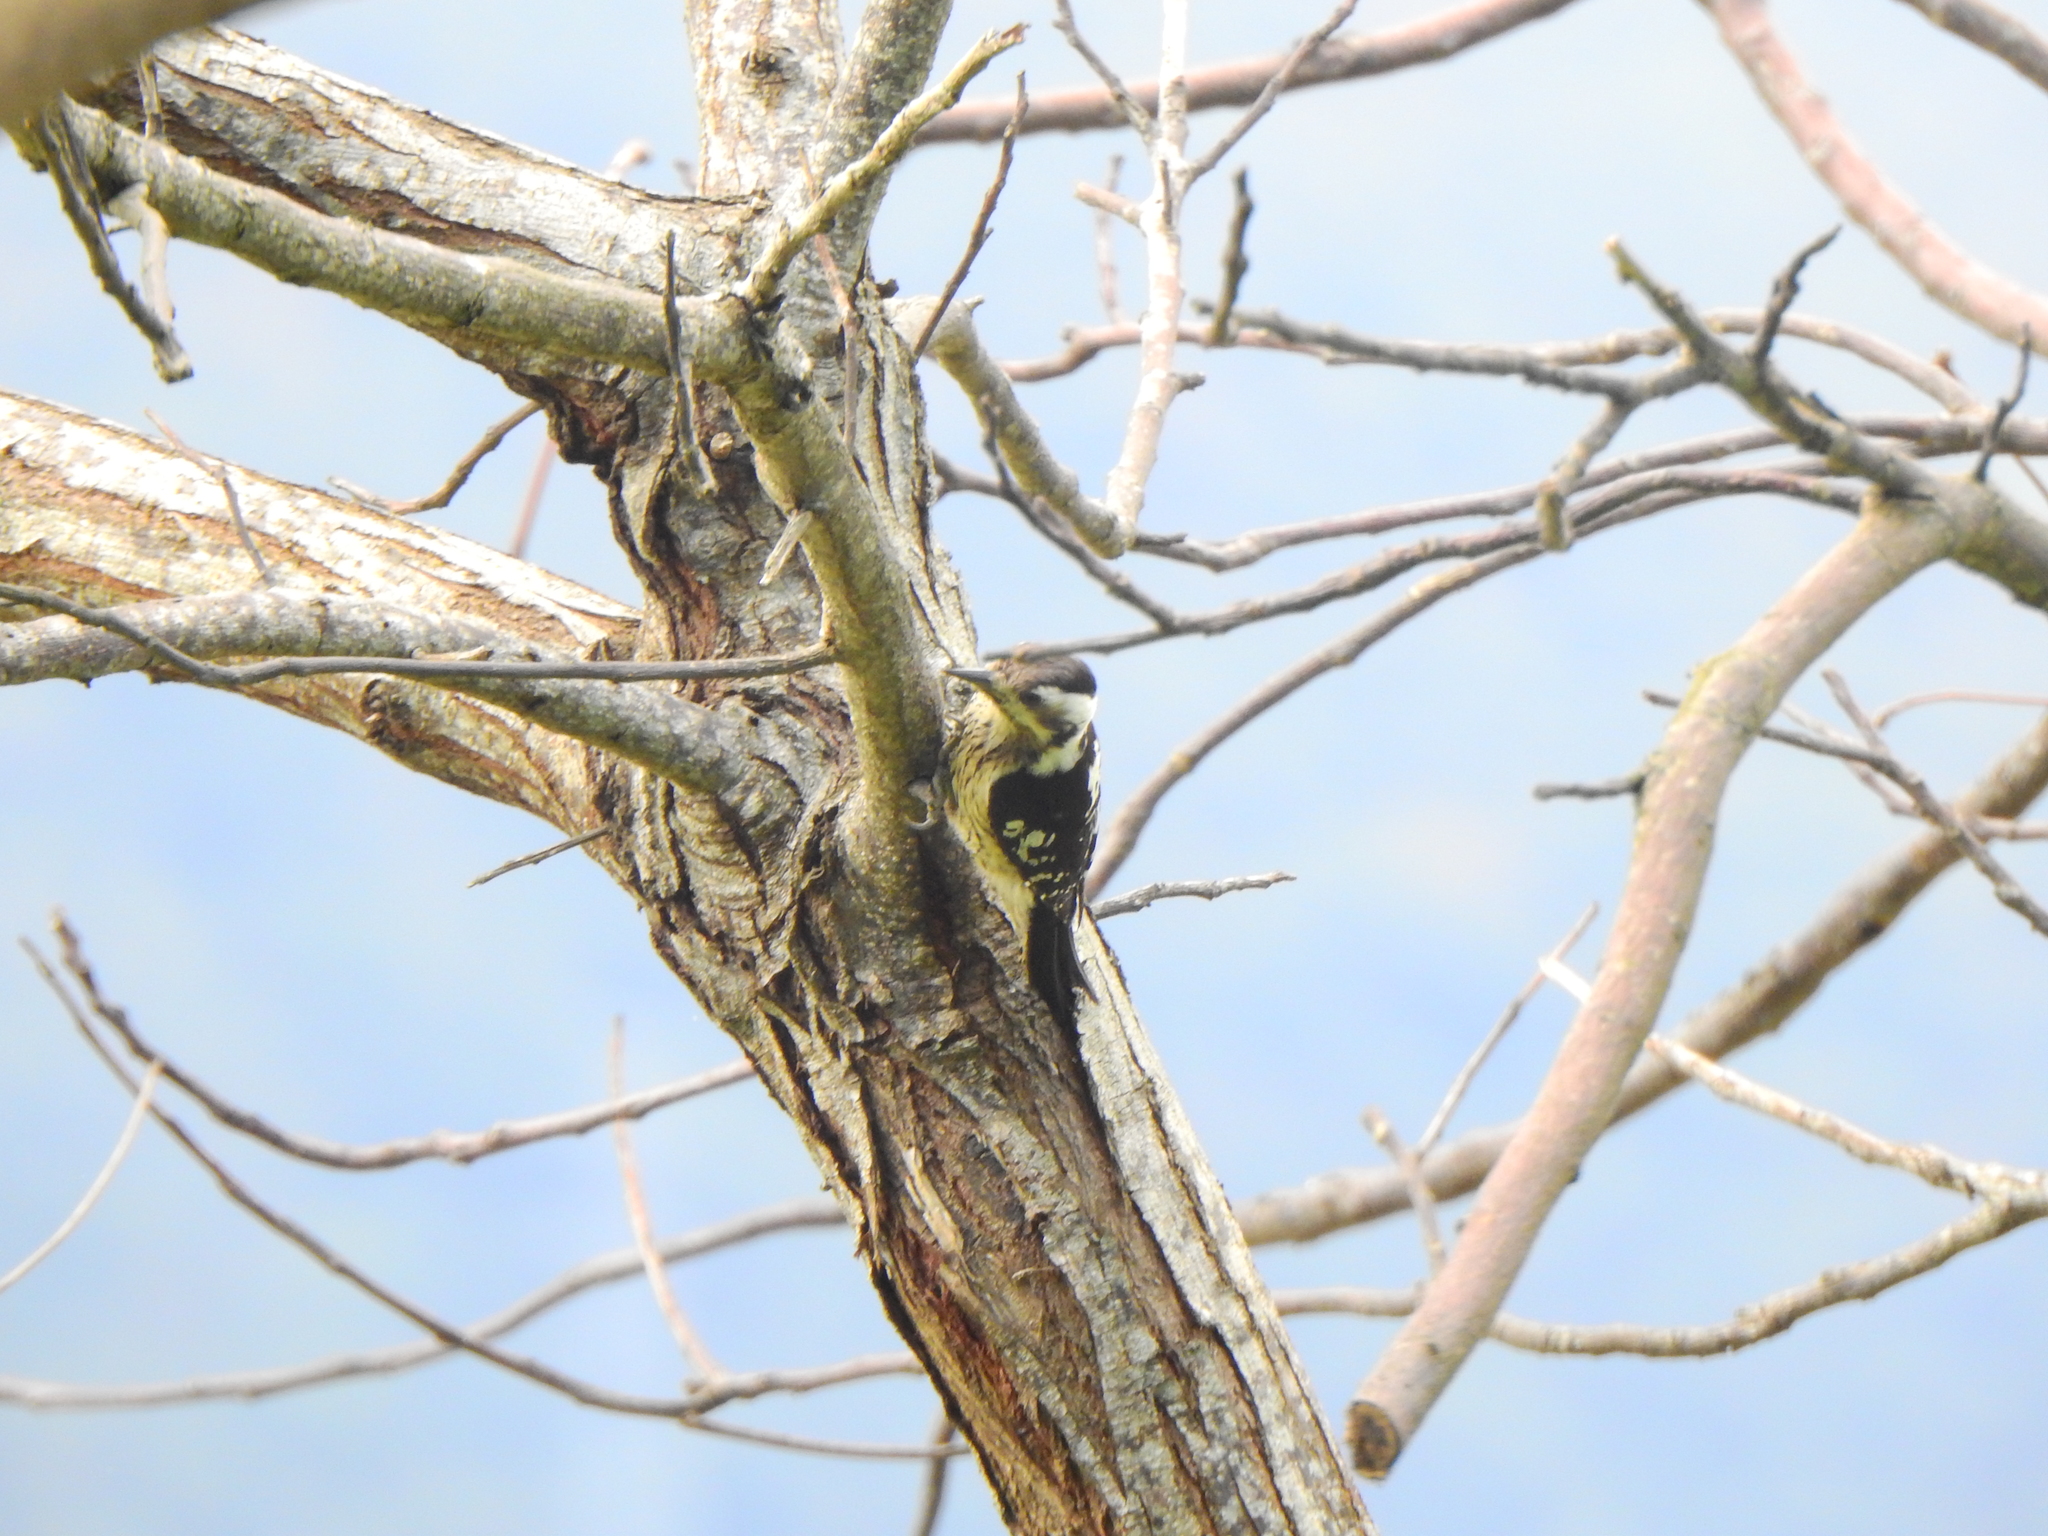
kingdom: Animalia
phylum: Chordata
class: Aves
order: Piciformes
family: Picidae
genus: Yungipicus
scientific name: Yungipicus canicapillus
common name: Grey-capped pygmy woodpecker
